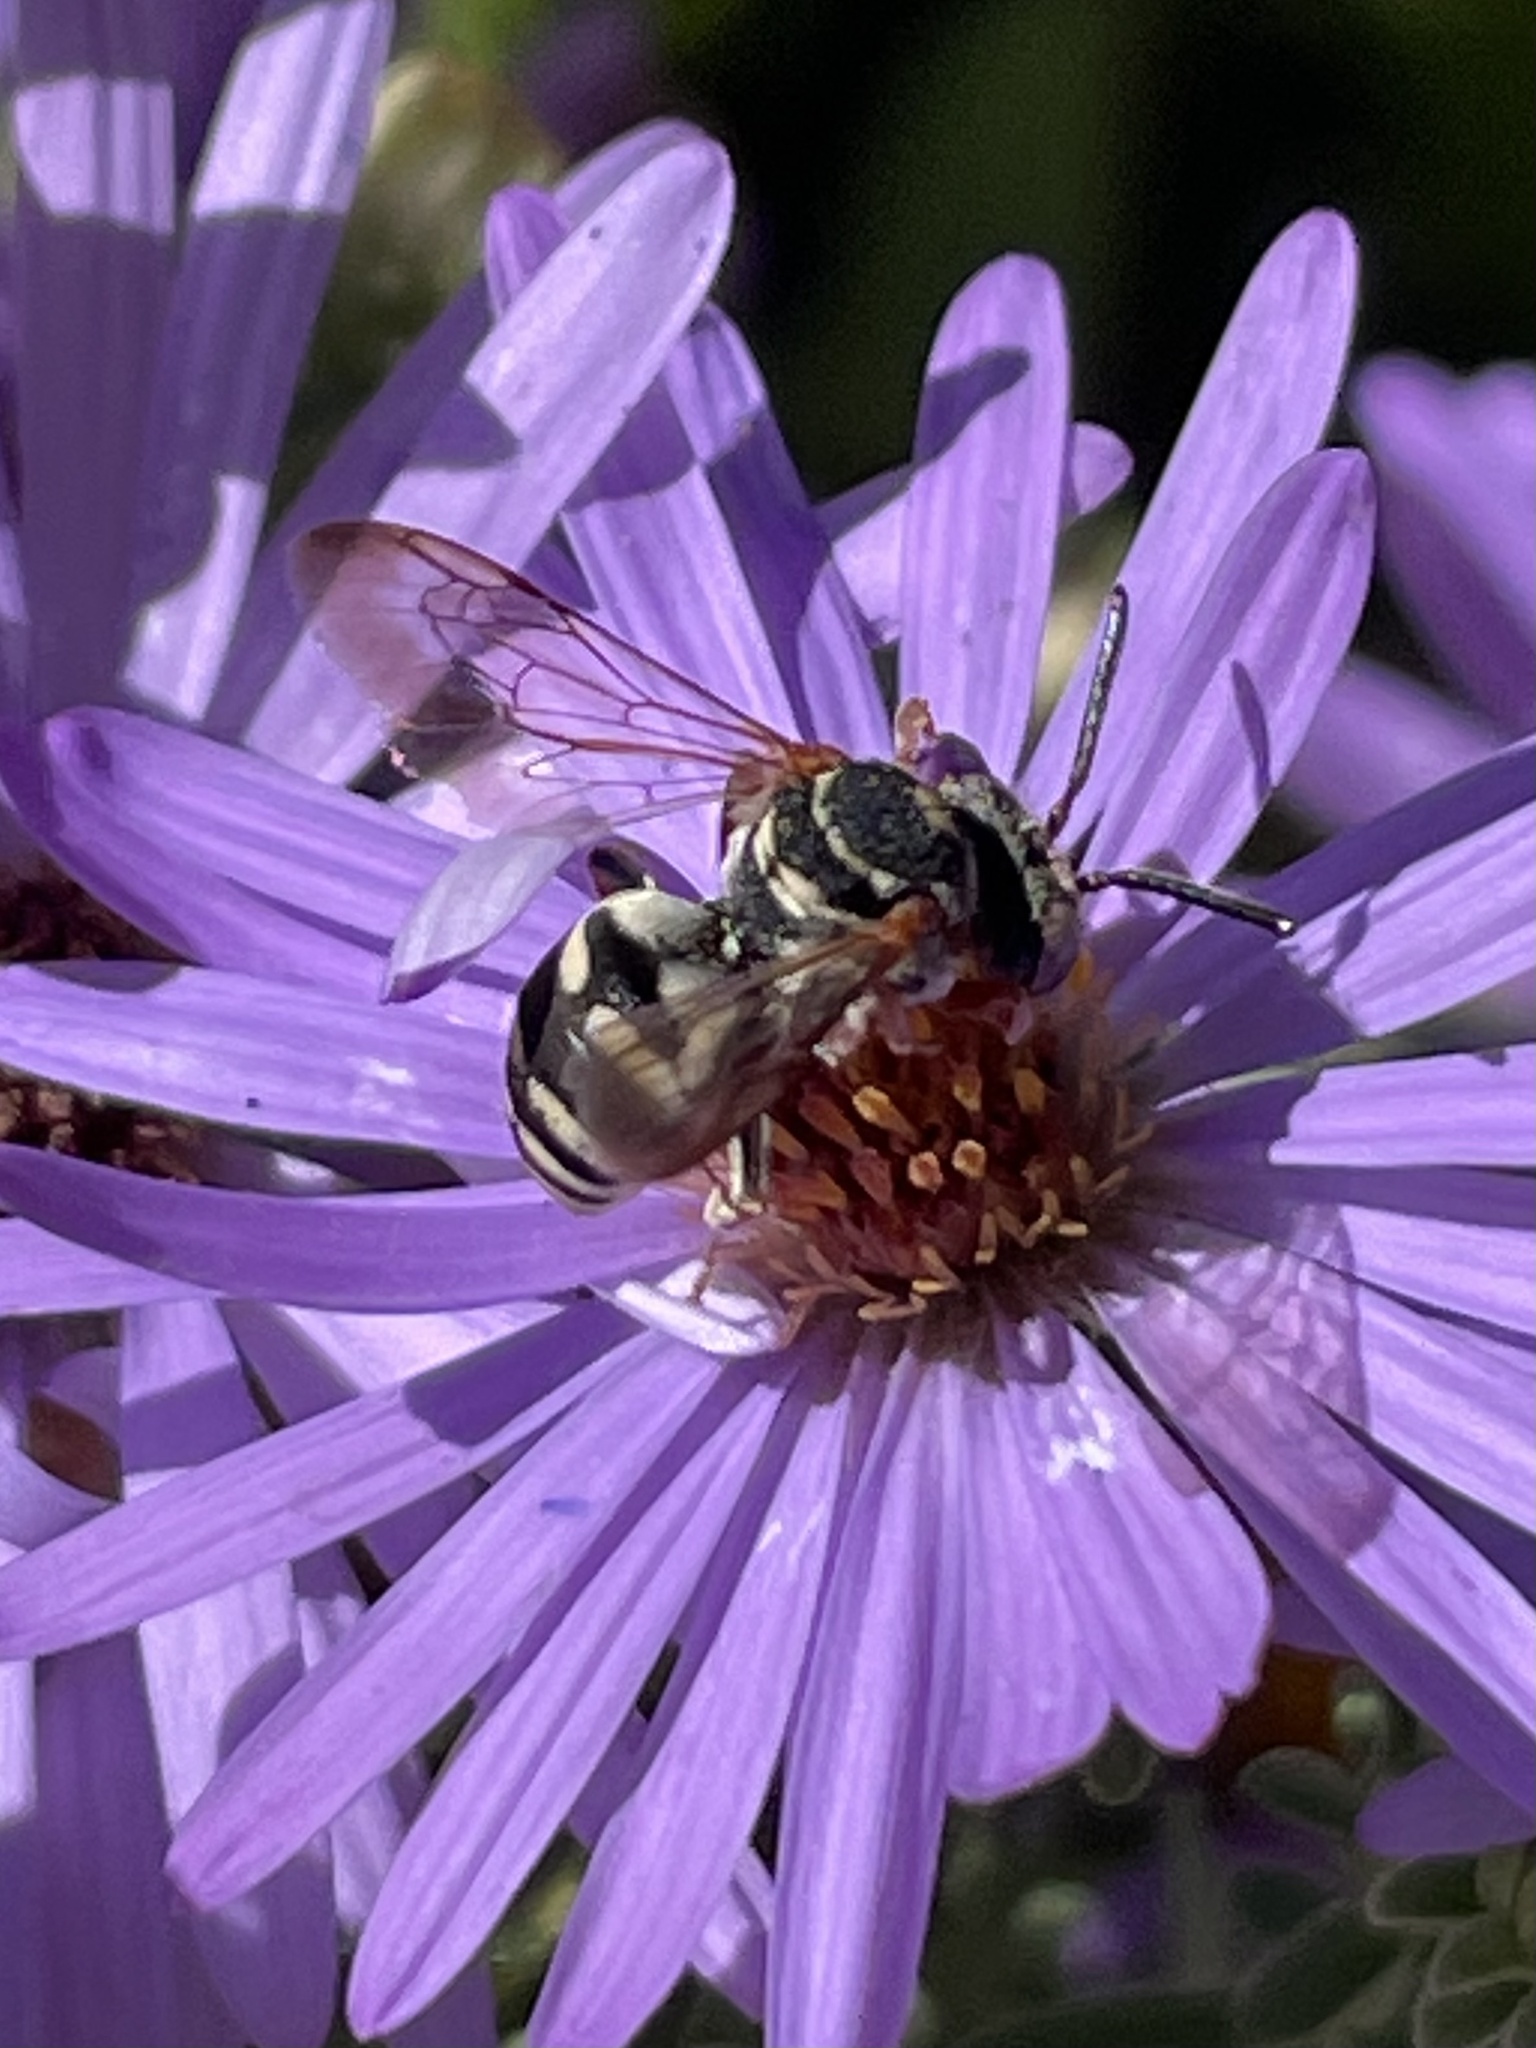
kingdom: Animalia
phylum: Arthropoda
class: Insecta
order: Hymenoptera
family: Apidae
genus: Epeolus
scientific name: Epeolus compactus
